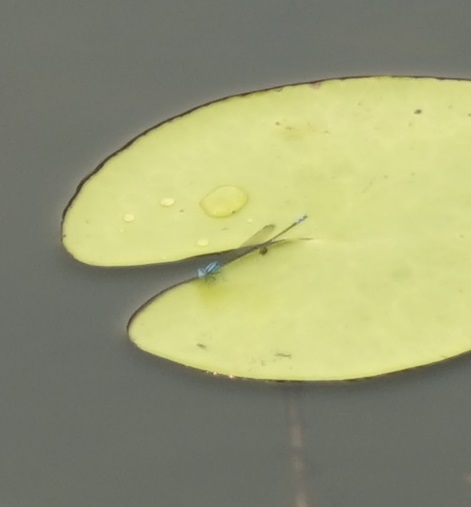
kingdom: Animalia
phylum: Arthropoda
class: Insecta
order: Odonata
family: Coenagrionidae
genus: Pseudagrion
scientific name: Pseudagrion microcephalum
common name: Blue riverdamsel
